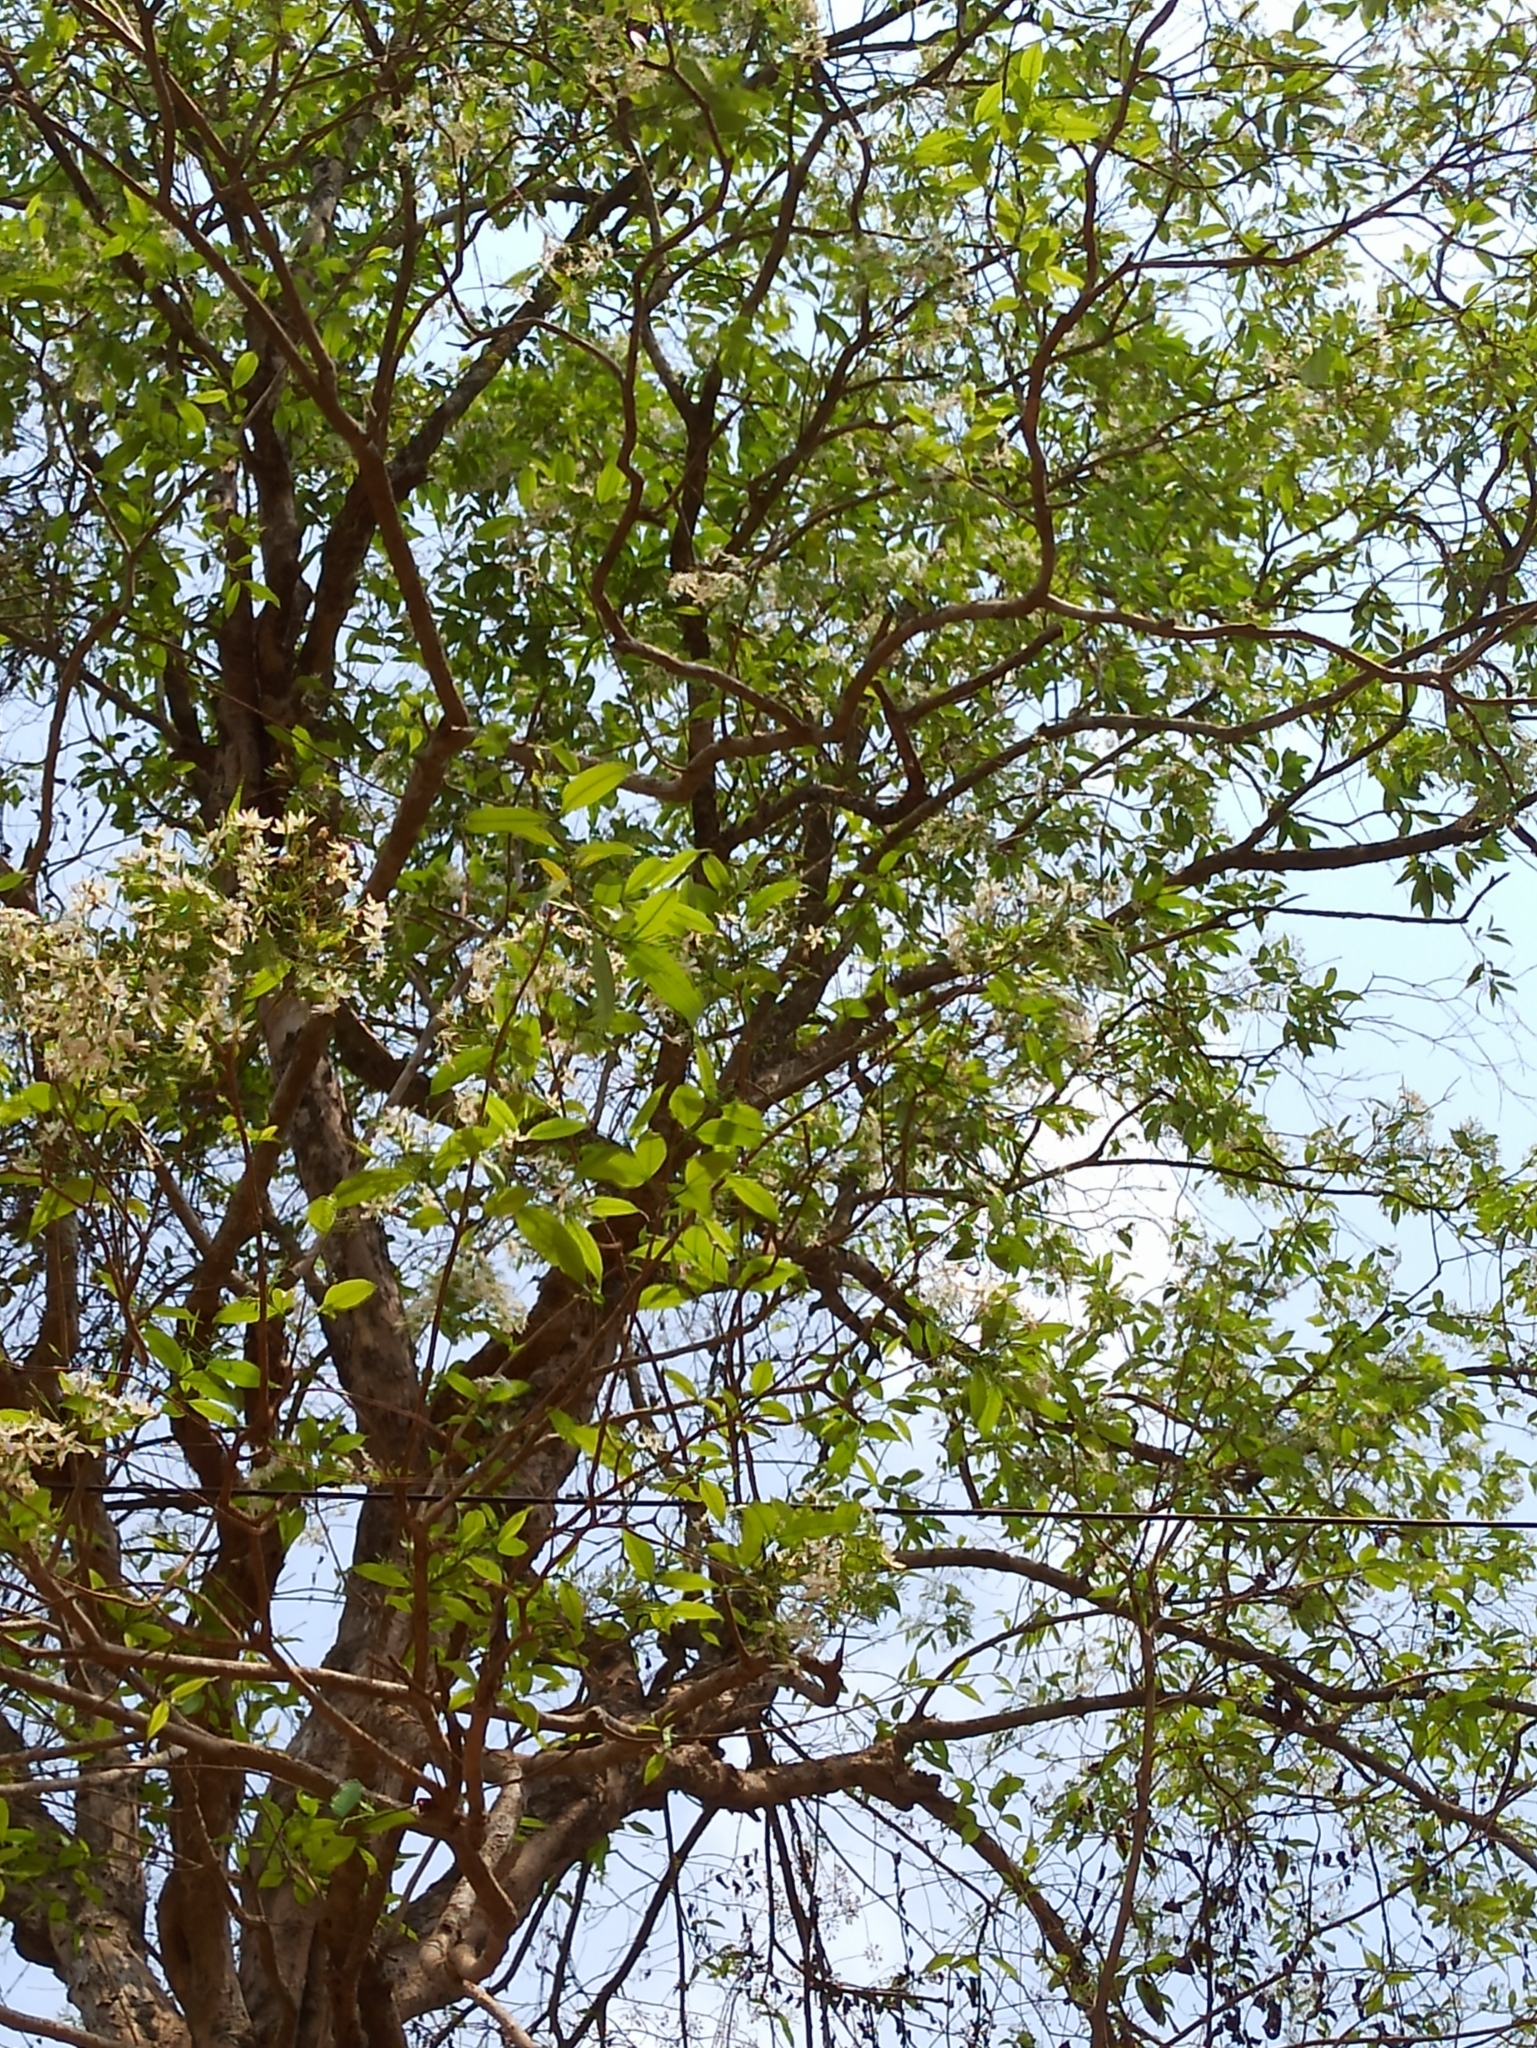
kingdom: Plantae
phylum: Tracheophyta
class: Magnoliopsida
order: Gentianales
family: Apocynaceae
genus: Wrightia
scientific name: Wrightia tinctoria
